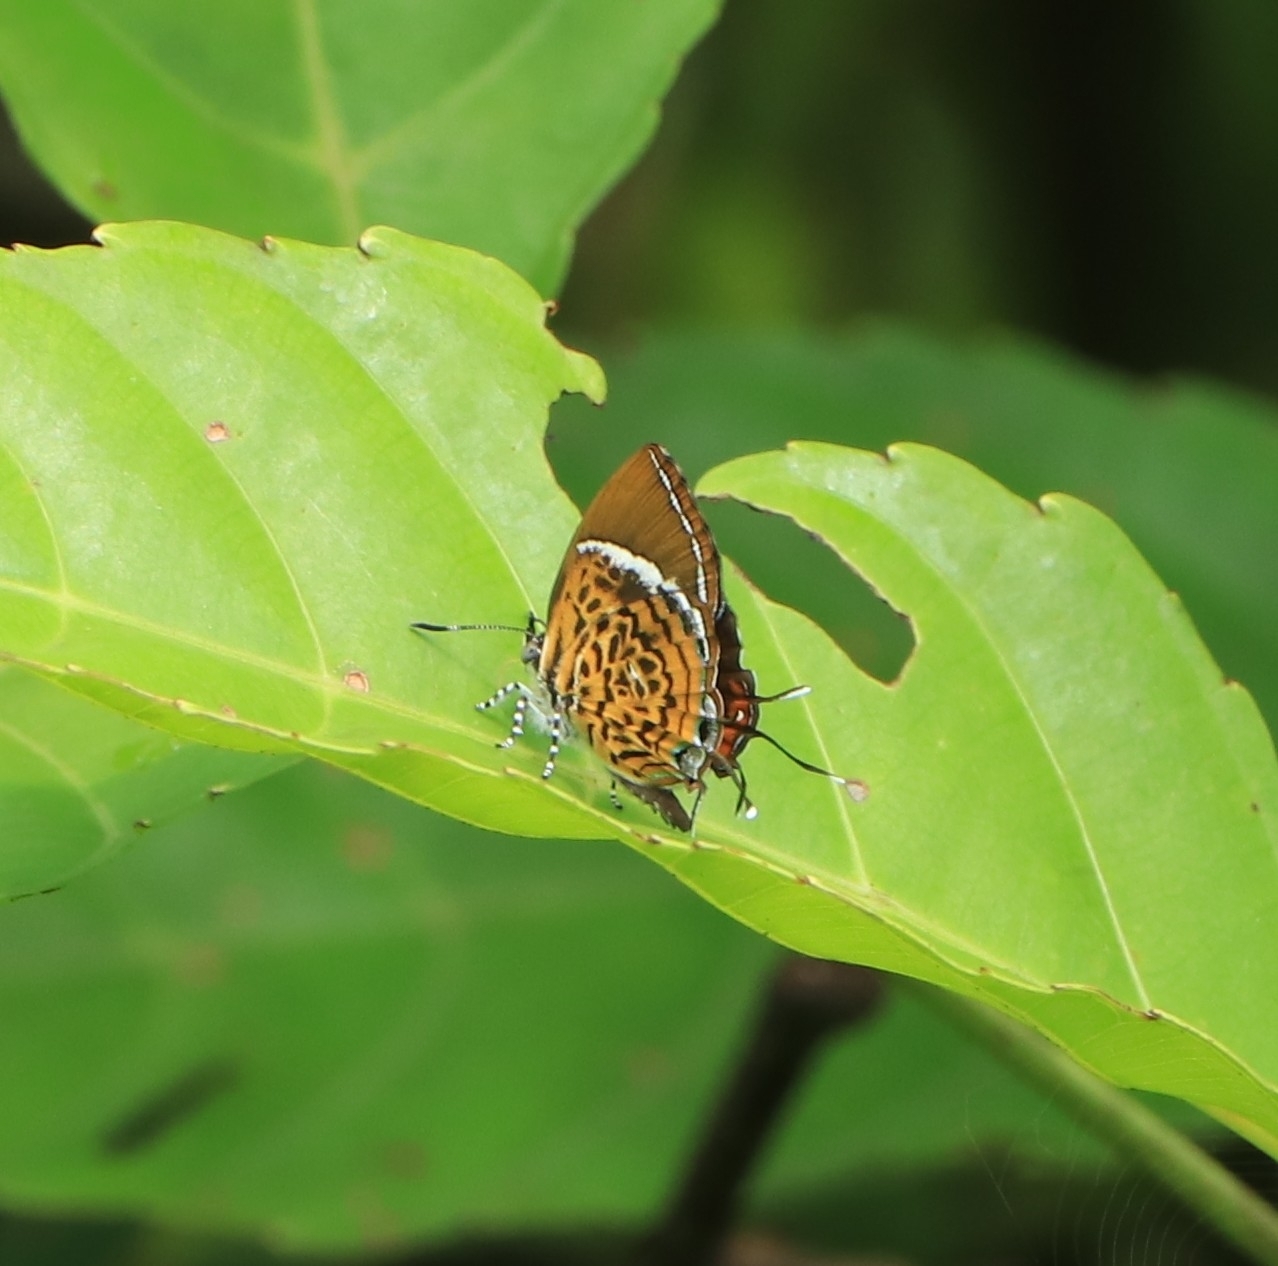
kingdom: Animalia
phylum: Arthropoda
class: Insecta
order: Lepidoptera
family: Lycaenidae
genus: Rathinda
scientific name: Rathinda amor
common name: Monkey puzzle
